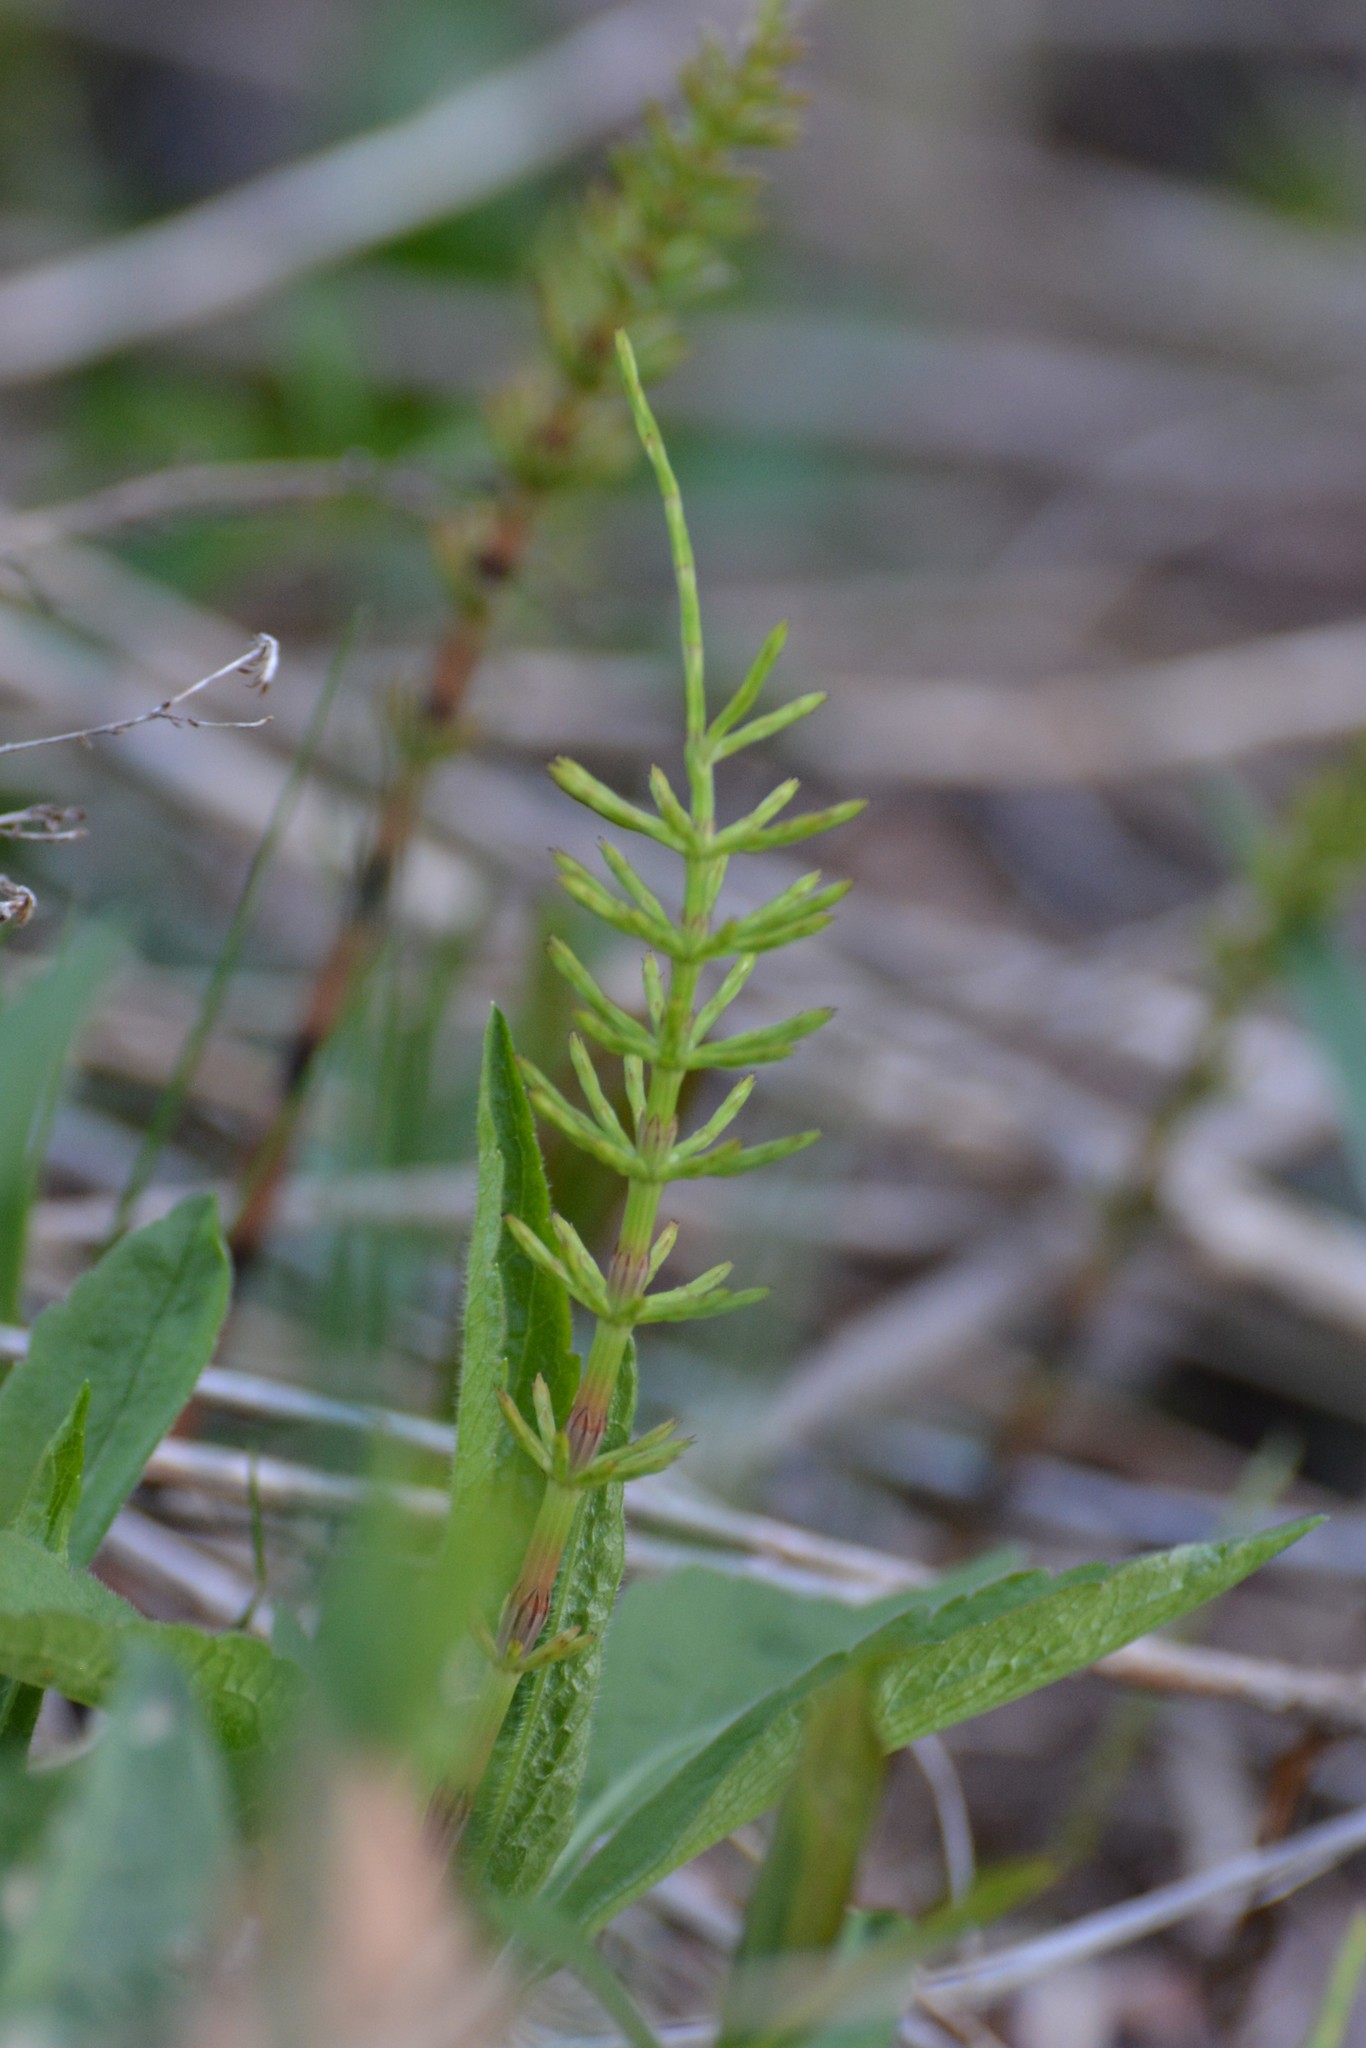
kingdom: Plantae
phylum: Tracheophyta
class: Polypodiopsida
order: Equisetales
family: Equisetaceae
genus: Equisetum
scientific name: Equisetum arvense
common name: Field horsetail
